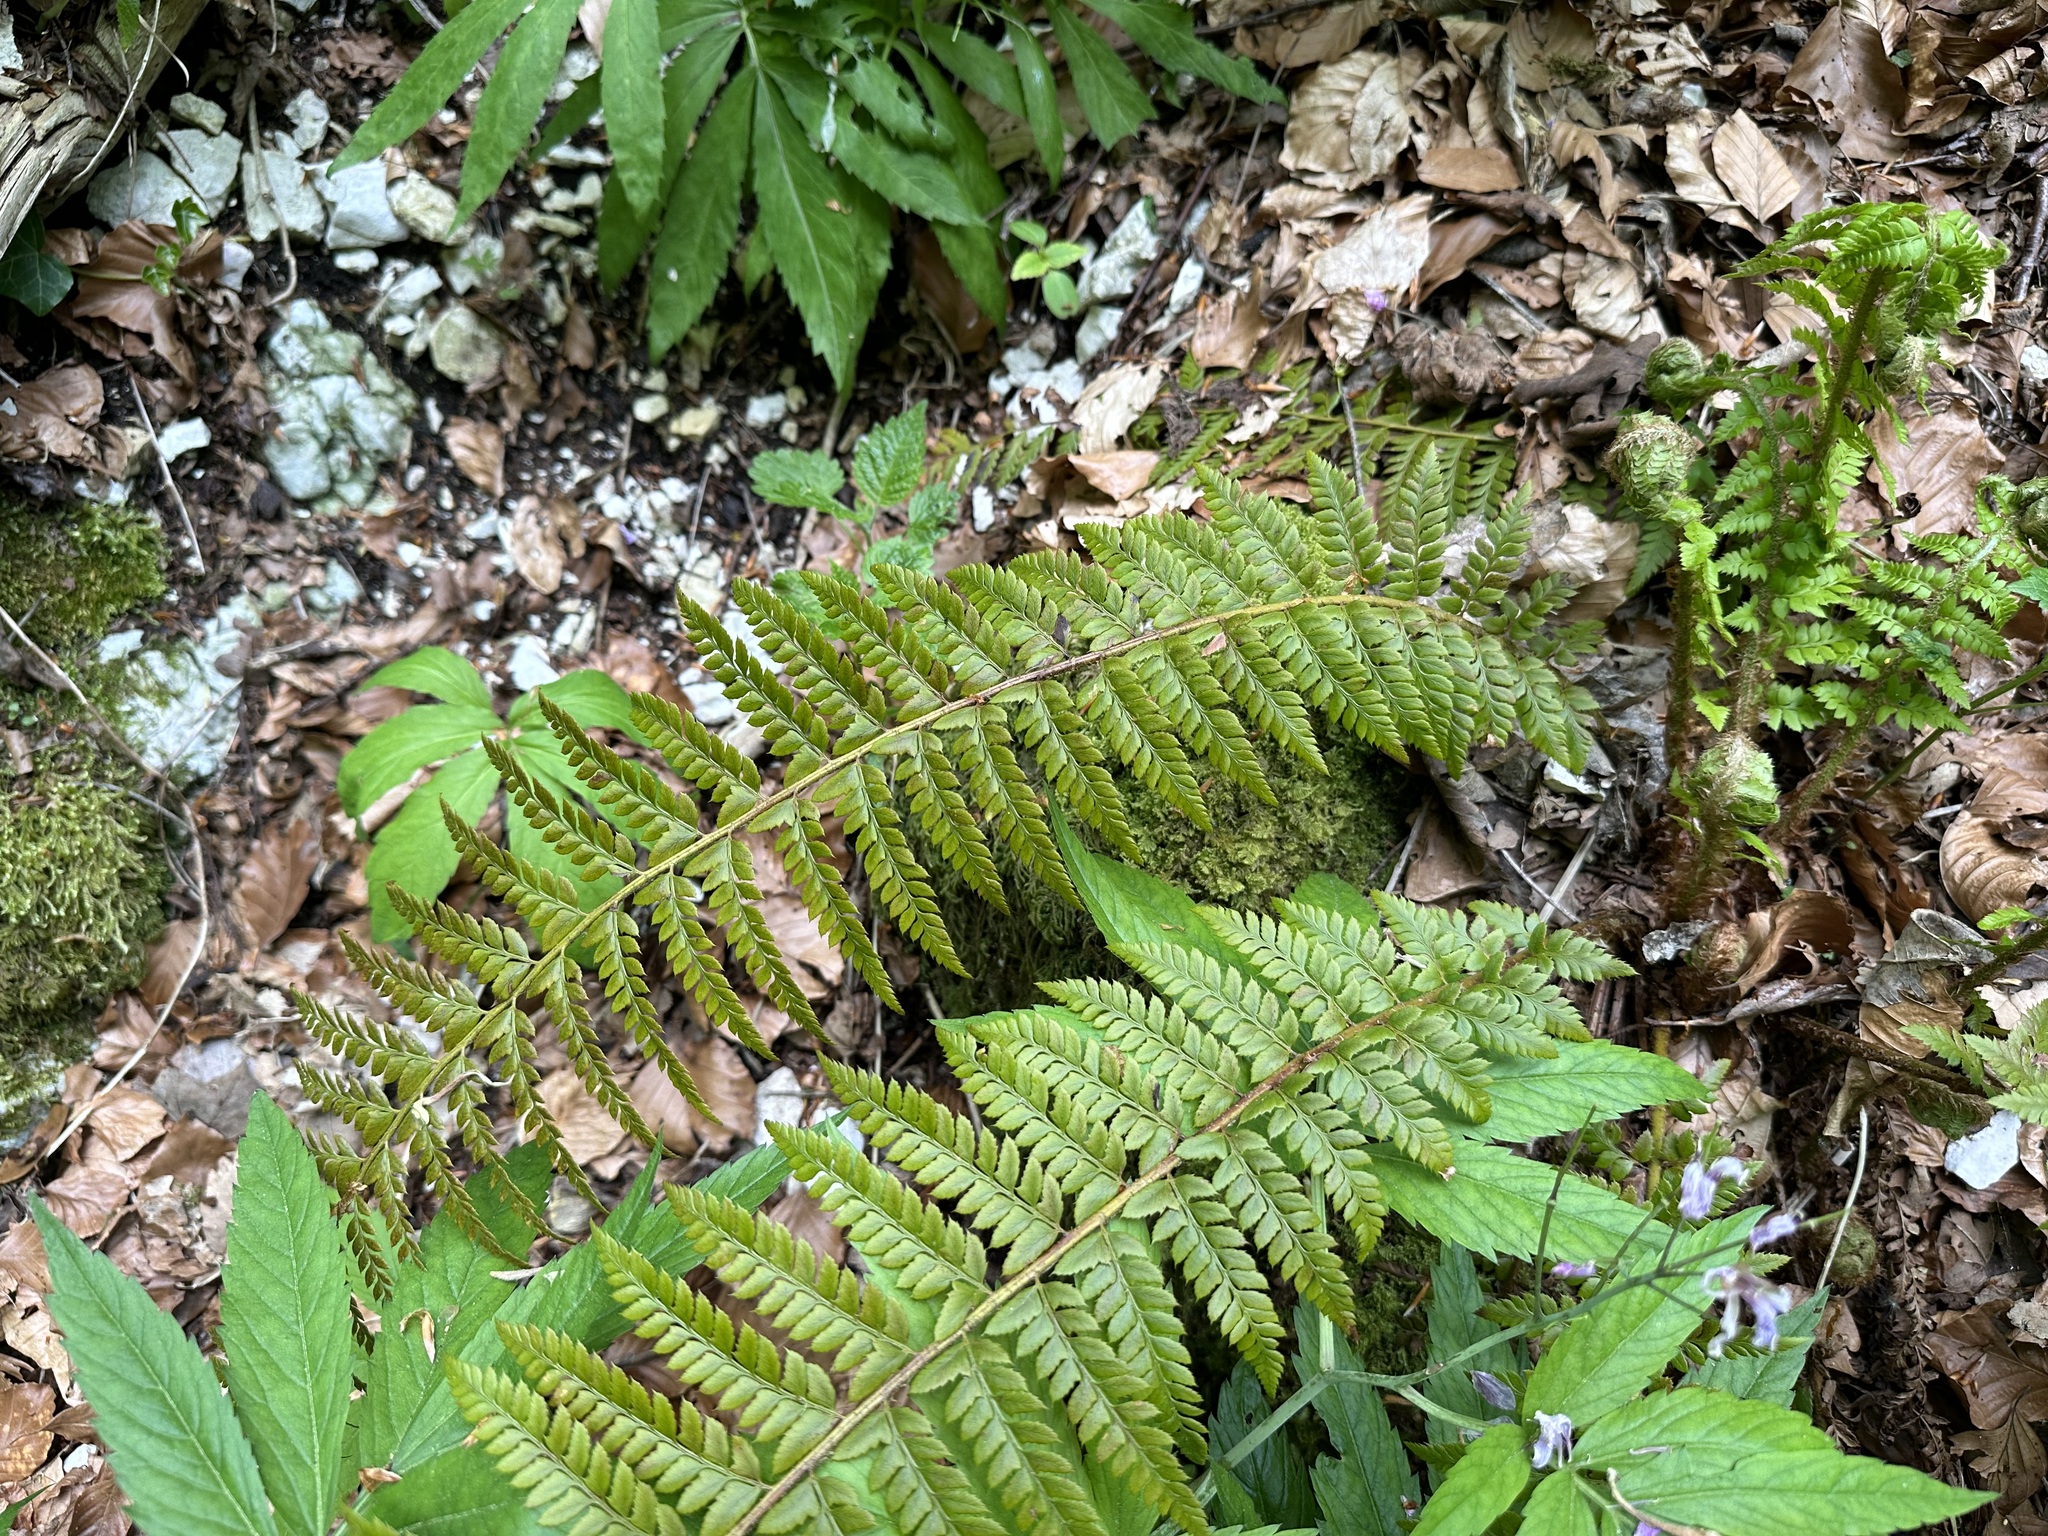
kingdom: Plantae
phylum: Tracheophyta
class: Polypodiopsida
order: Polypodiales
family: Dryopteridaceae
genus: Polystichum
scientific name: Polystichum aculeatum
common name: Hard shield-fern
